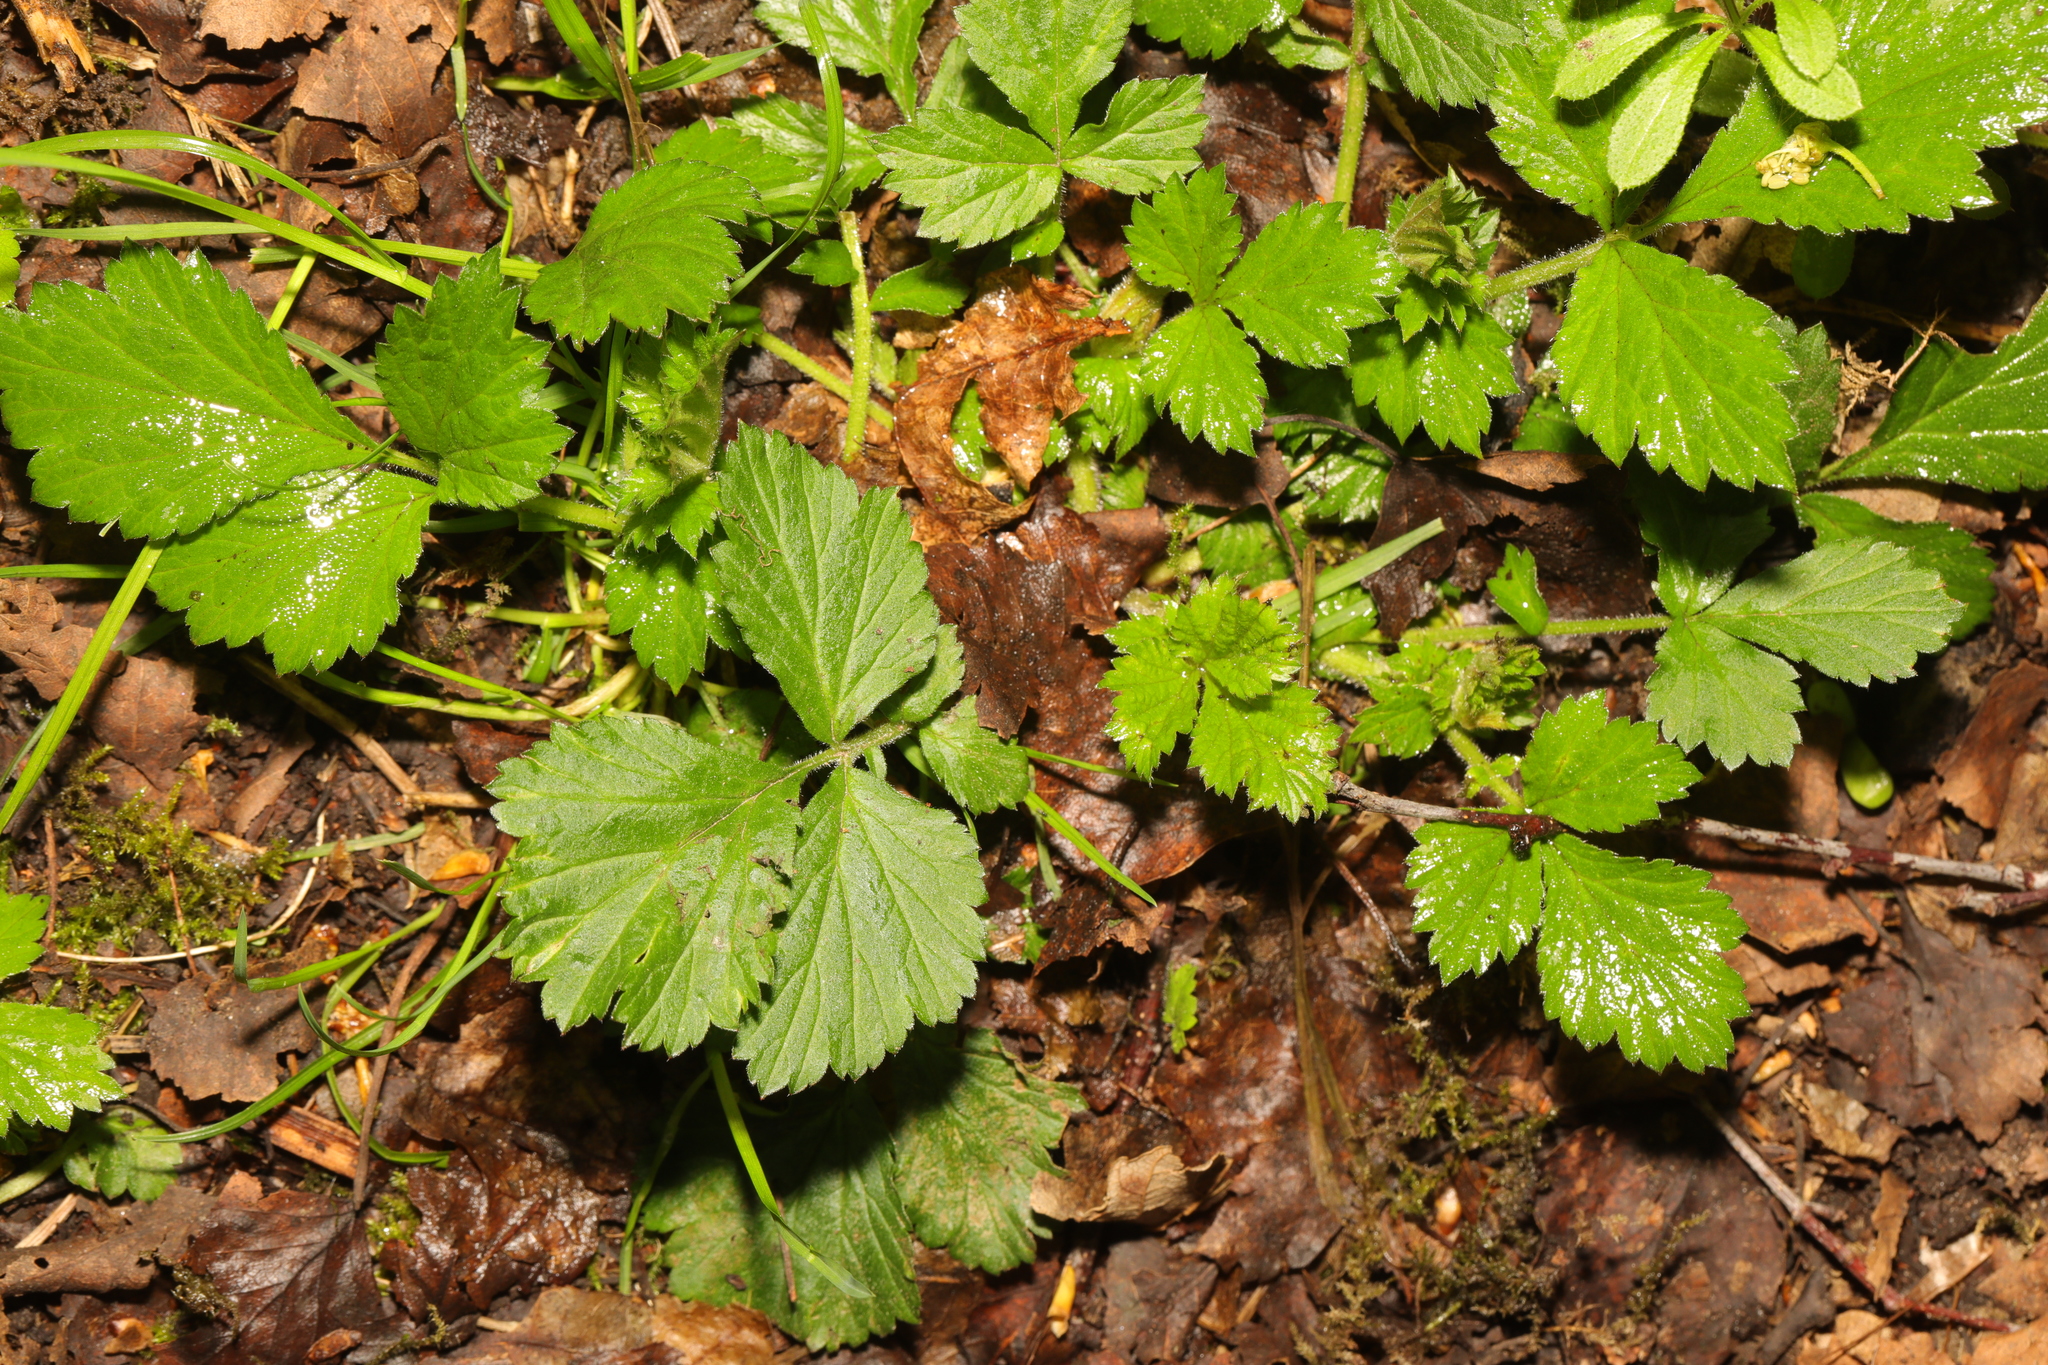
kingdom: Plantae
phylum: Tracheophyta
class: Magnoliopsida
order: Rosales
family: Rosaceae
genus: Geum
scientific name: Geum urbanum
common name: Wood avens
